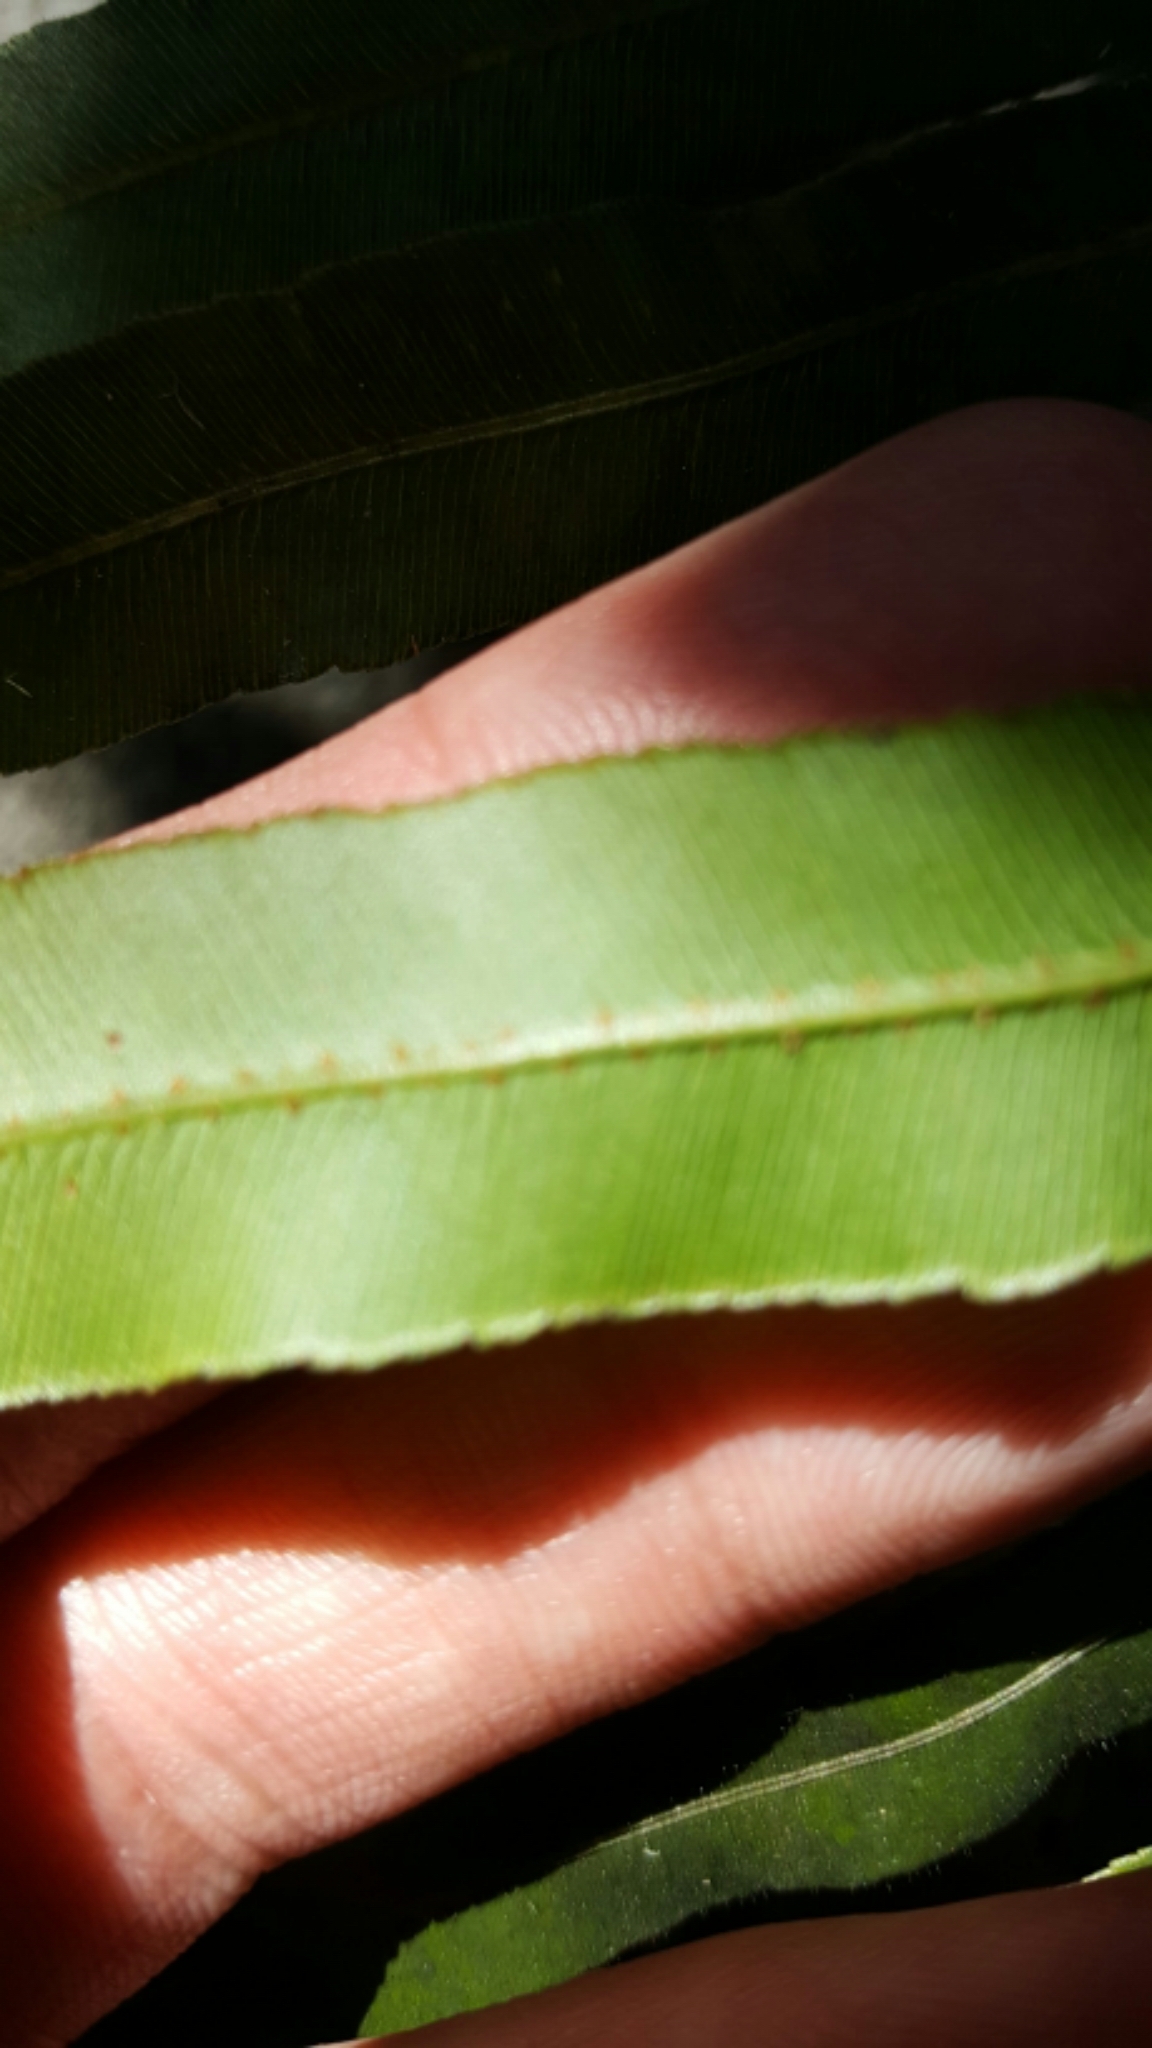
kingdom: Plantae
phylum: Tracheophyta
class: Polypodiopsida
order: Polypodiales
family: Blechnaceae
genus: Telmatoblechnum
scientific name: Telmatoblechnum serrulatum
